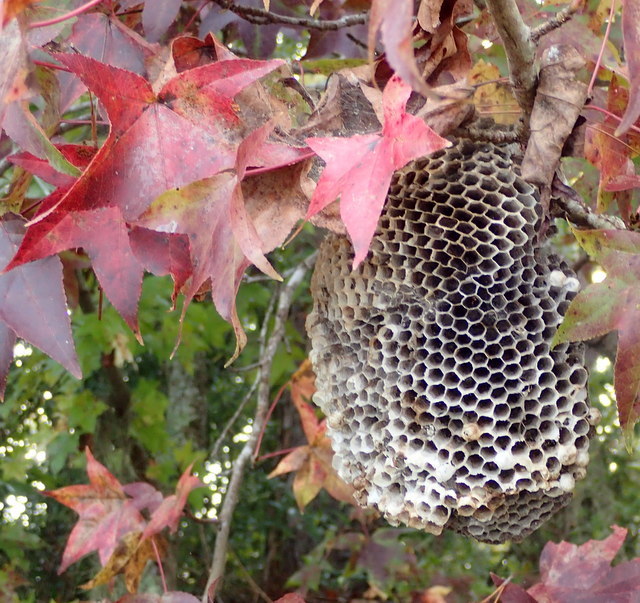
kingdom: Animalia
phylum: Arthropoda
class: Insecta
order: Hymenoptera
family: Eumenidae
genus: Polistes
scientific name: Polistes annularis
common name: Ringed paper wasp
